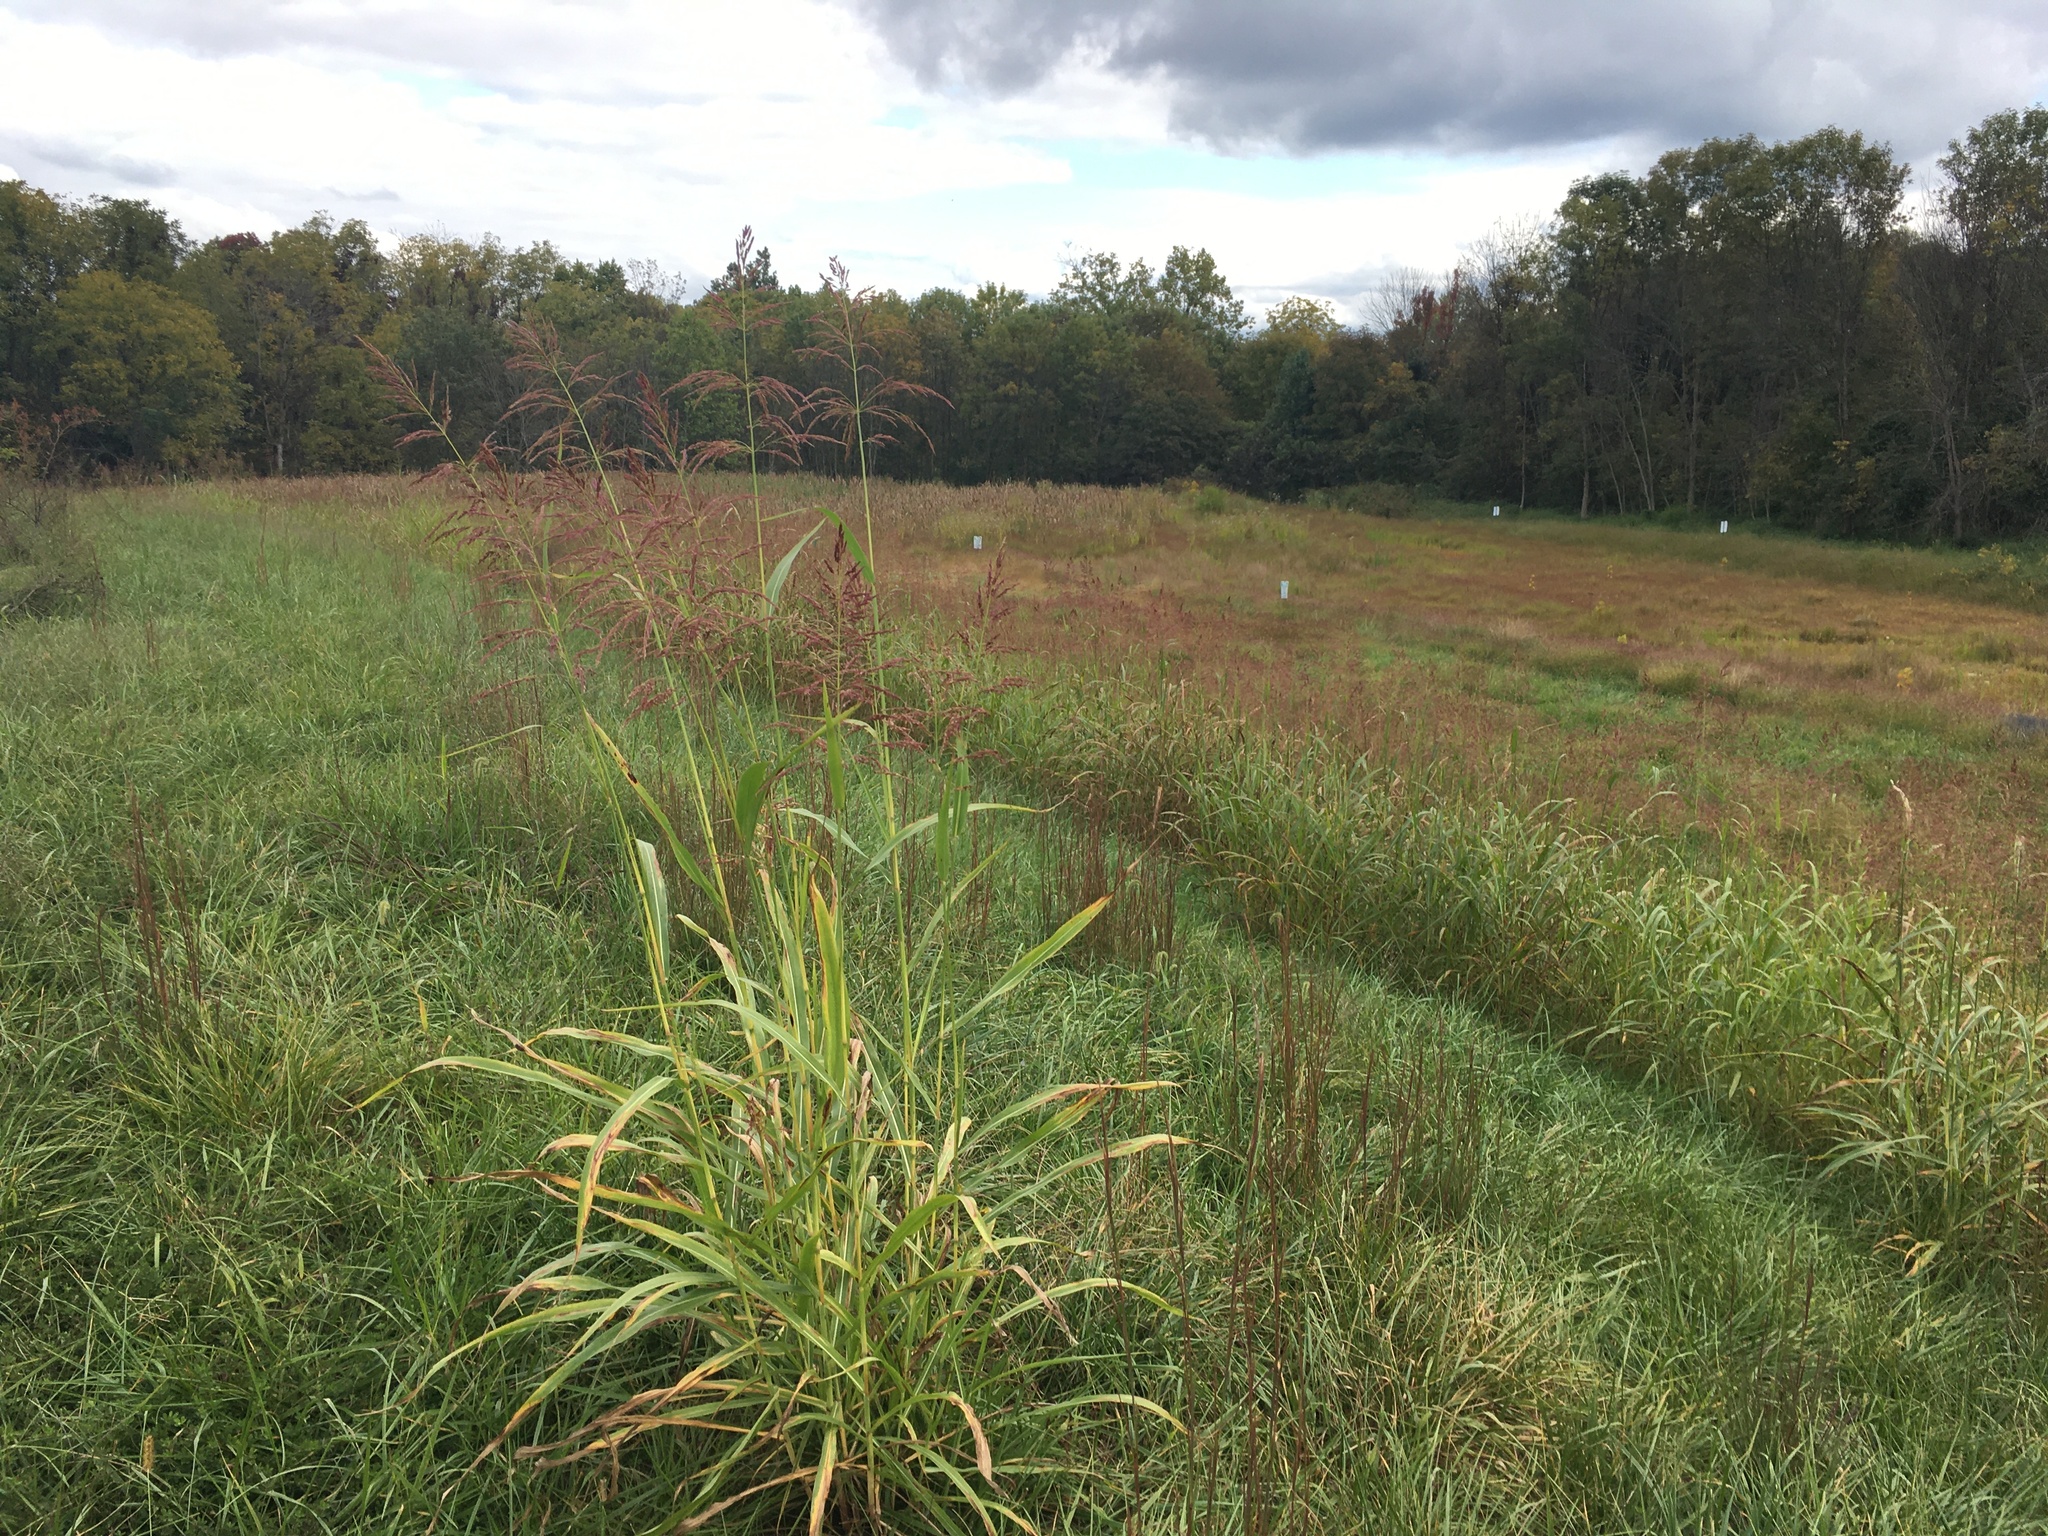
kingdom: Plantae
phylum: Tracheophyta
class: Liliopsida
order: Poales
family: Poaceae
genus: Sorghum
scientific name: Sorghum halepense
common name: Johnson-grass
